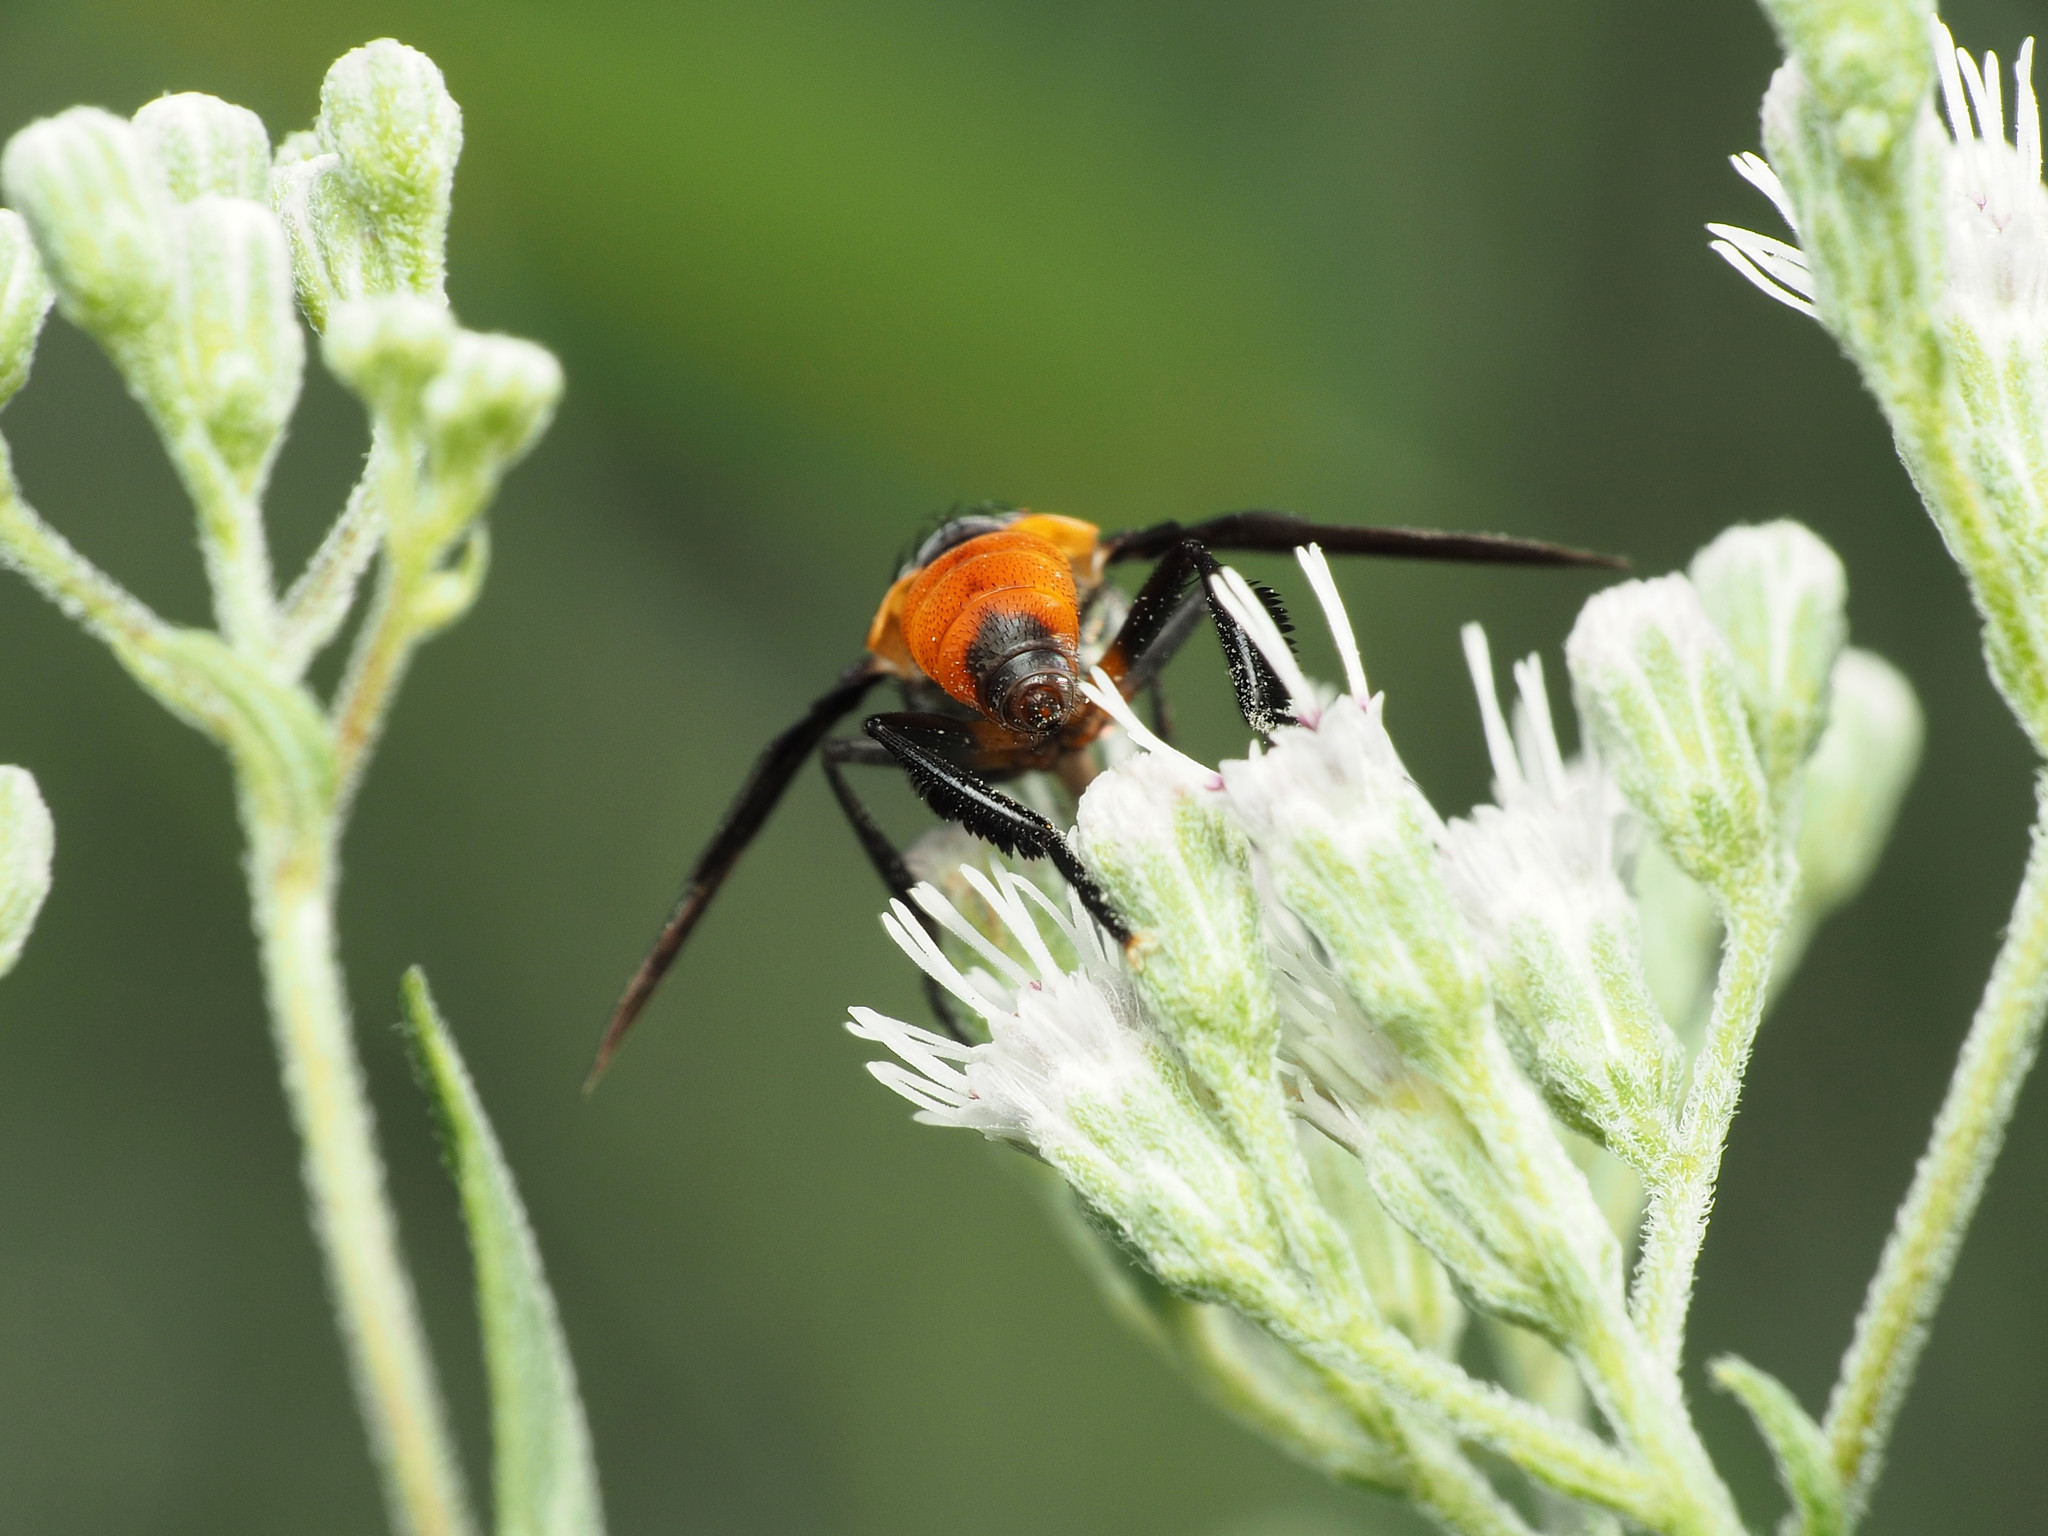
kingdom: Animalia
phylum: Arthropoda
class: Insecta
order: Diptera
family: Tachinidae
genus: Trichopoda
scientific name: Trichopoda pennipes
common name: Tachinid fly
